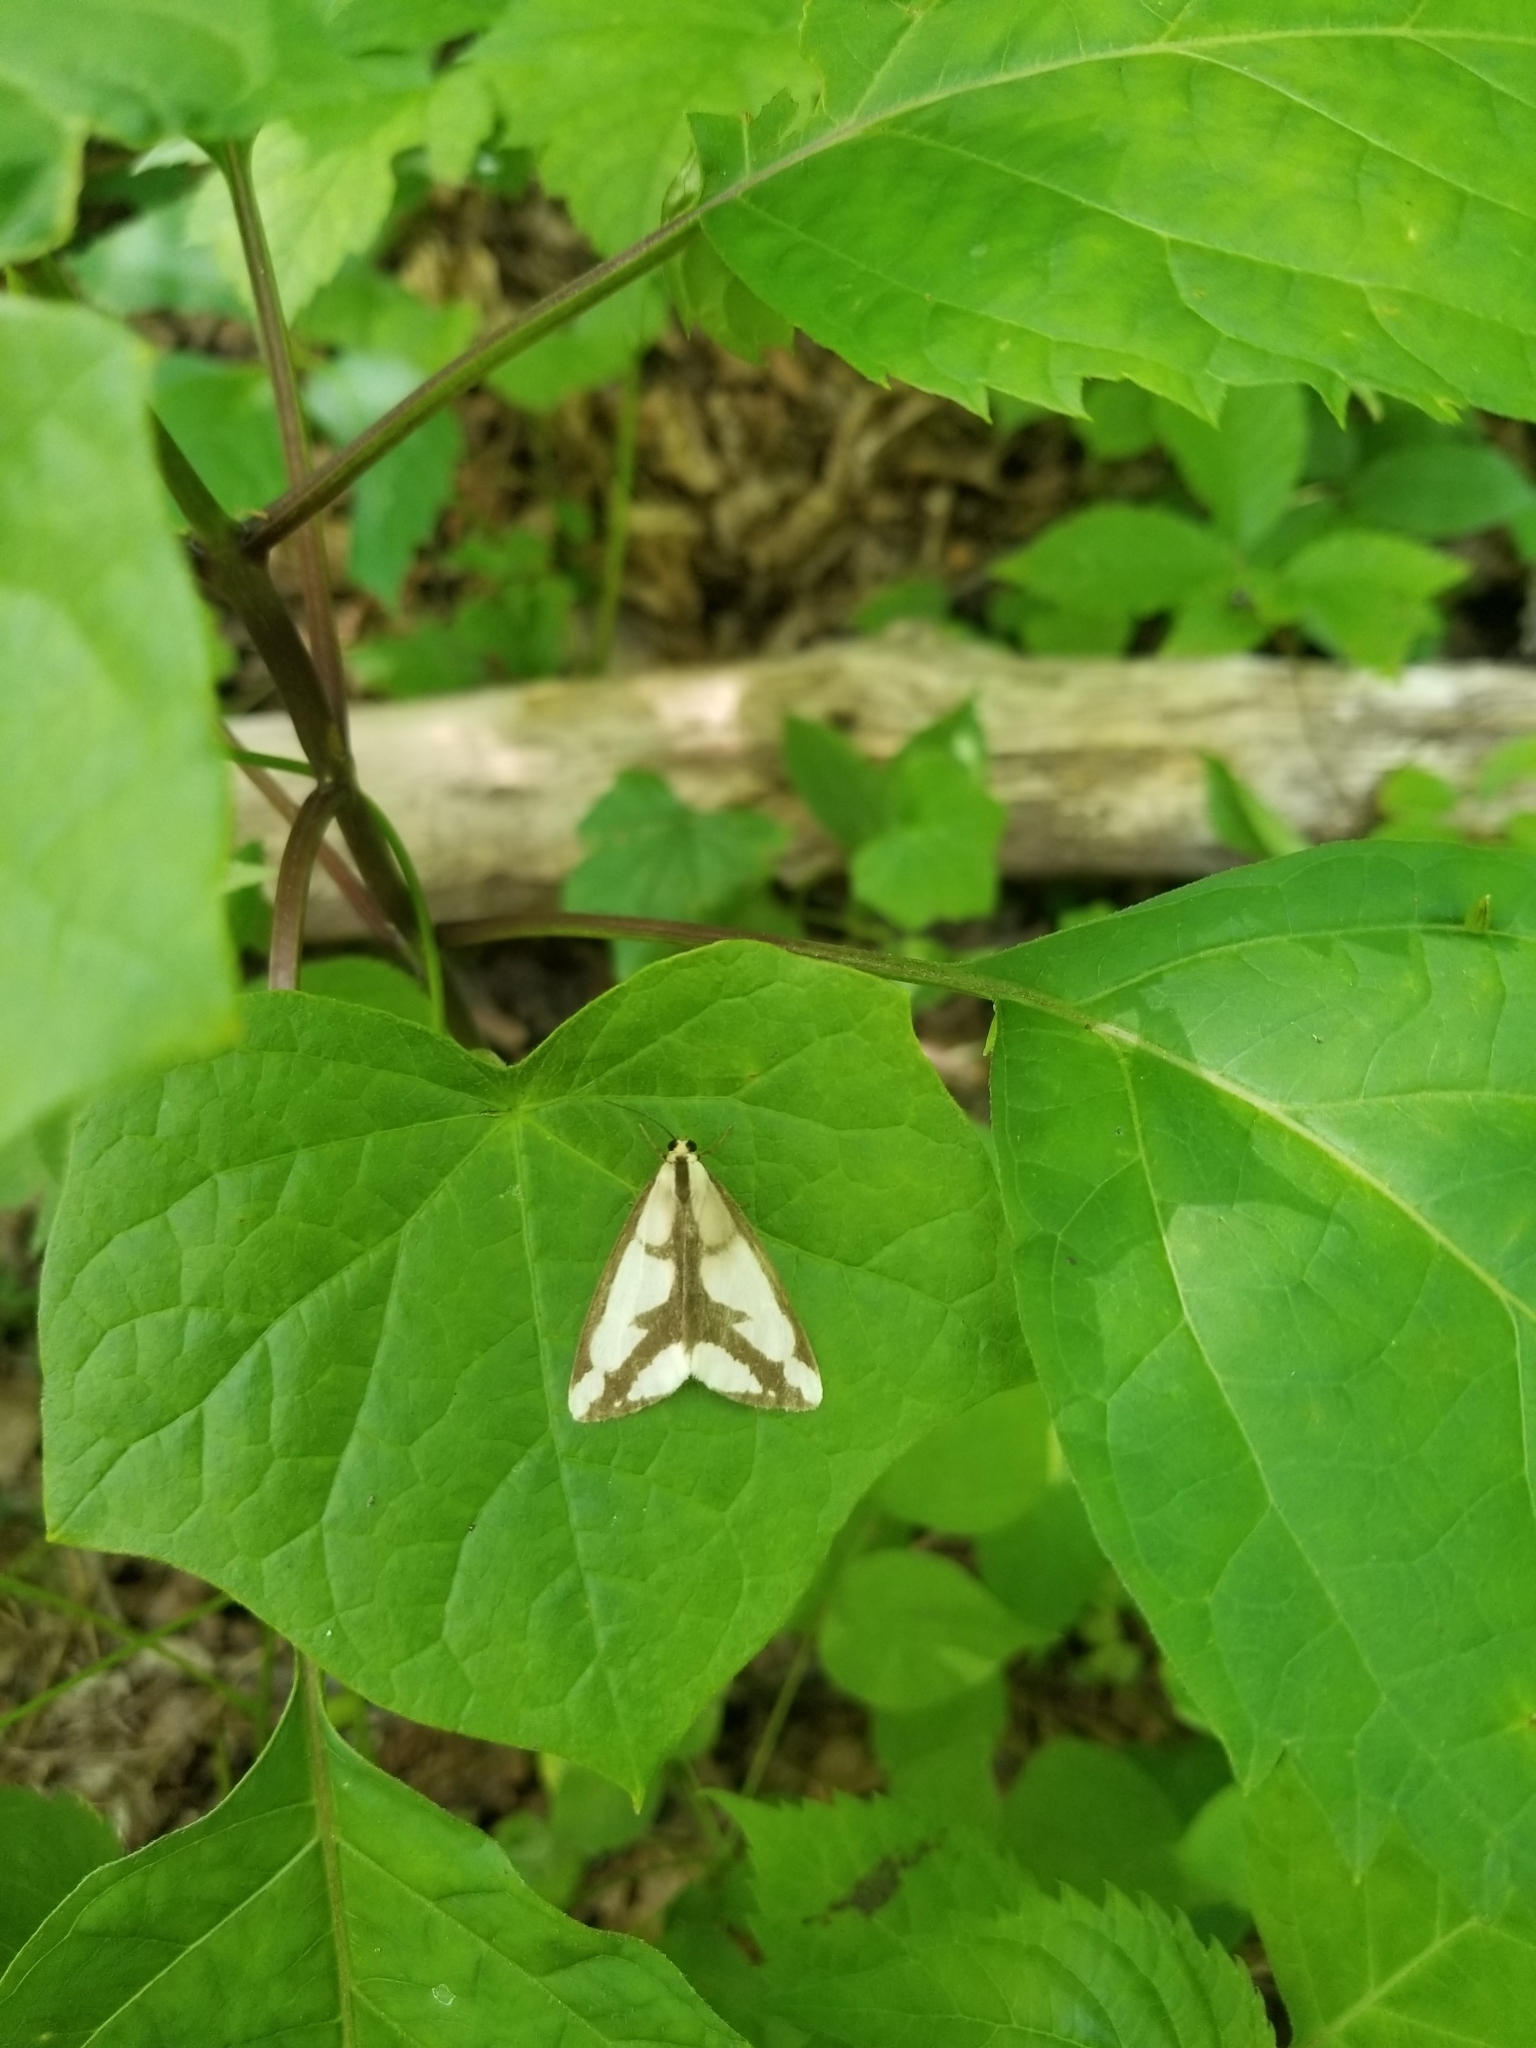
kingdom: Plantae
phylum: Tracheophyta
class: Magnoliopsida
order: Ranunculales
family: Menispermaceae
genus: Menispermum
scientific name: Menispermum canadense
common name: Moonseed
